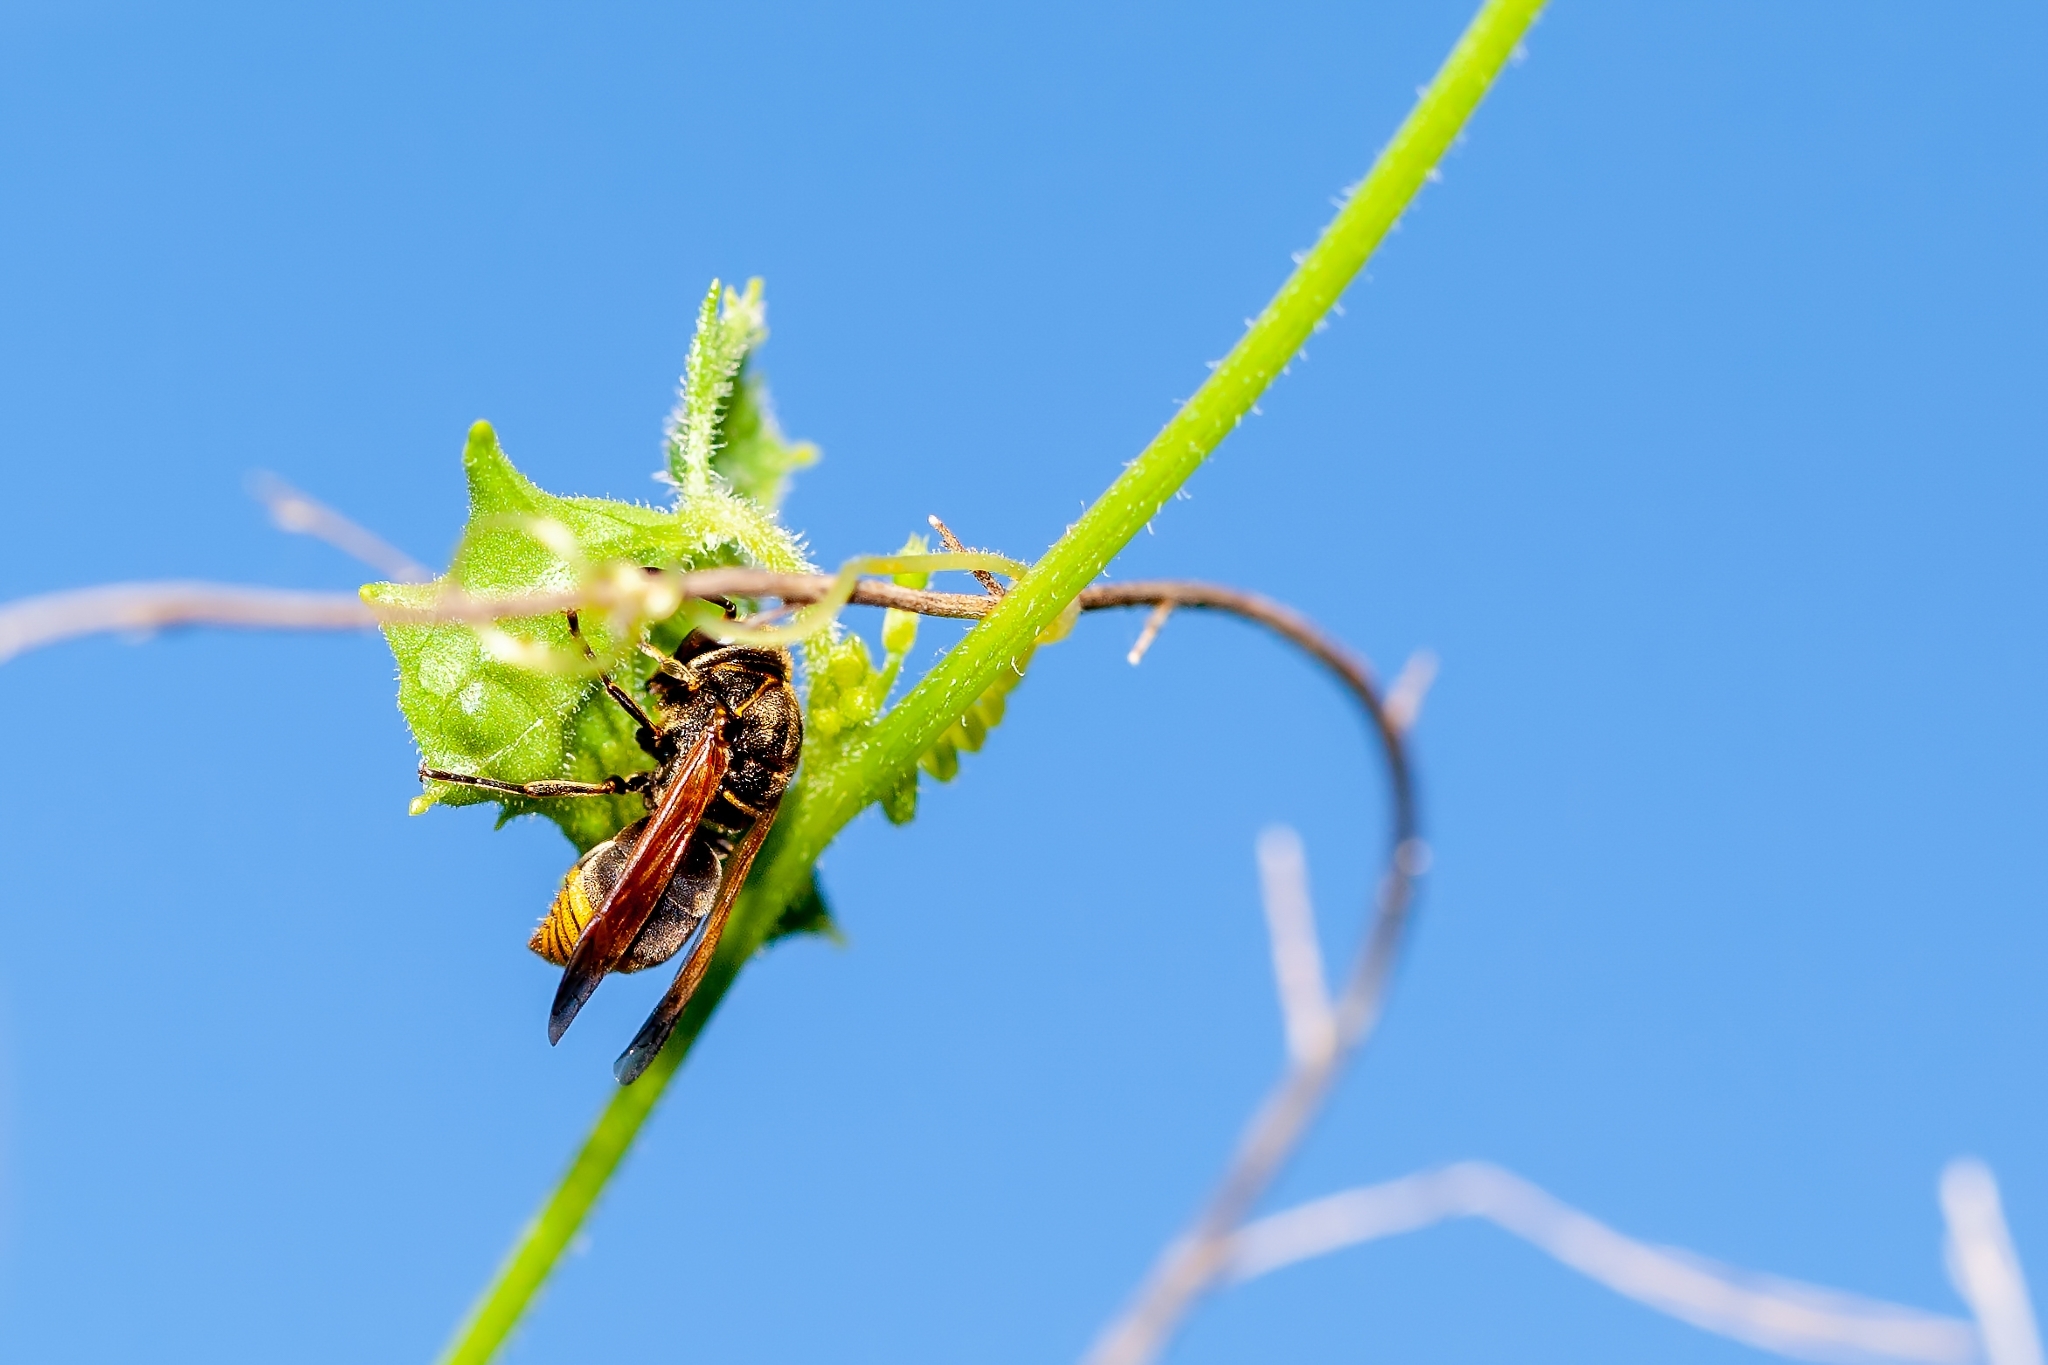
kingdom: Animalia
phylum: Arthropoda
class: Insecta
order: Hymenoptera
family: Eumenidae
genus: Pachodynerus
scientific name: Pachodynerus nasidens
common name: Key hole wasp
